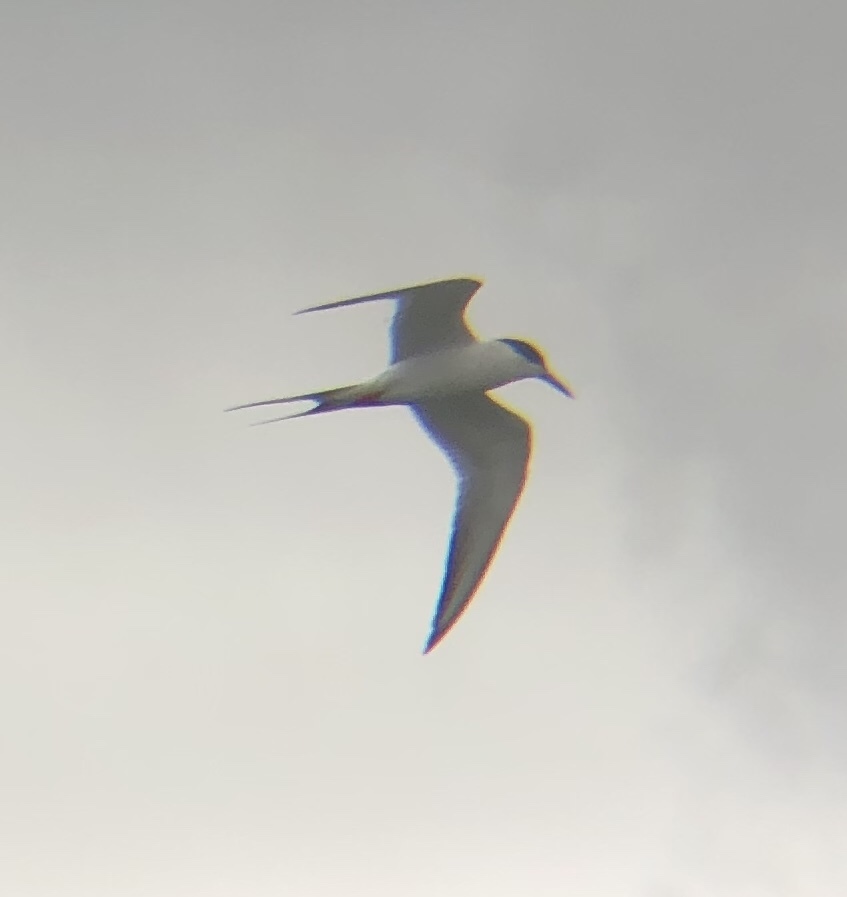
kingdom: Animalia
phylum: Chordata
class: Aves
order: Charadriiformes
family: Laridae
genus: Sterna
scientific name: Sterna forsteri
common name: Forster's tern
